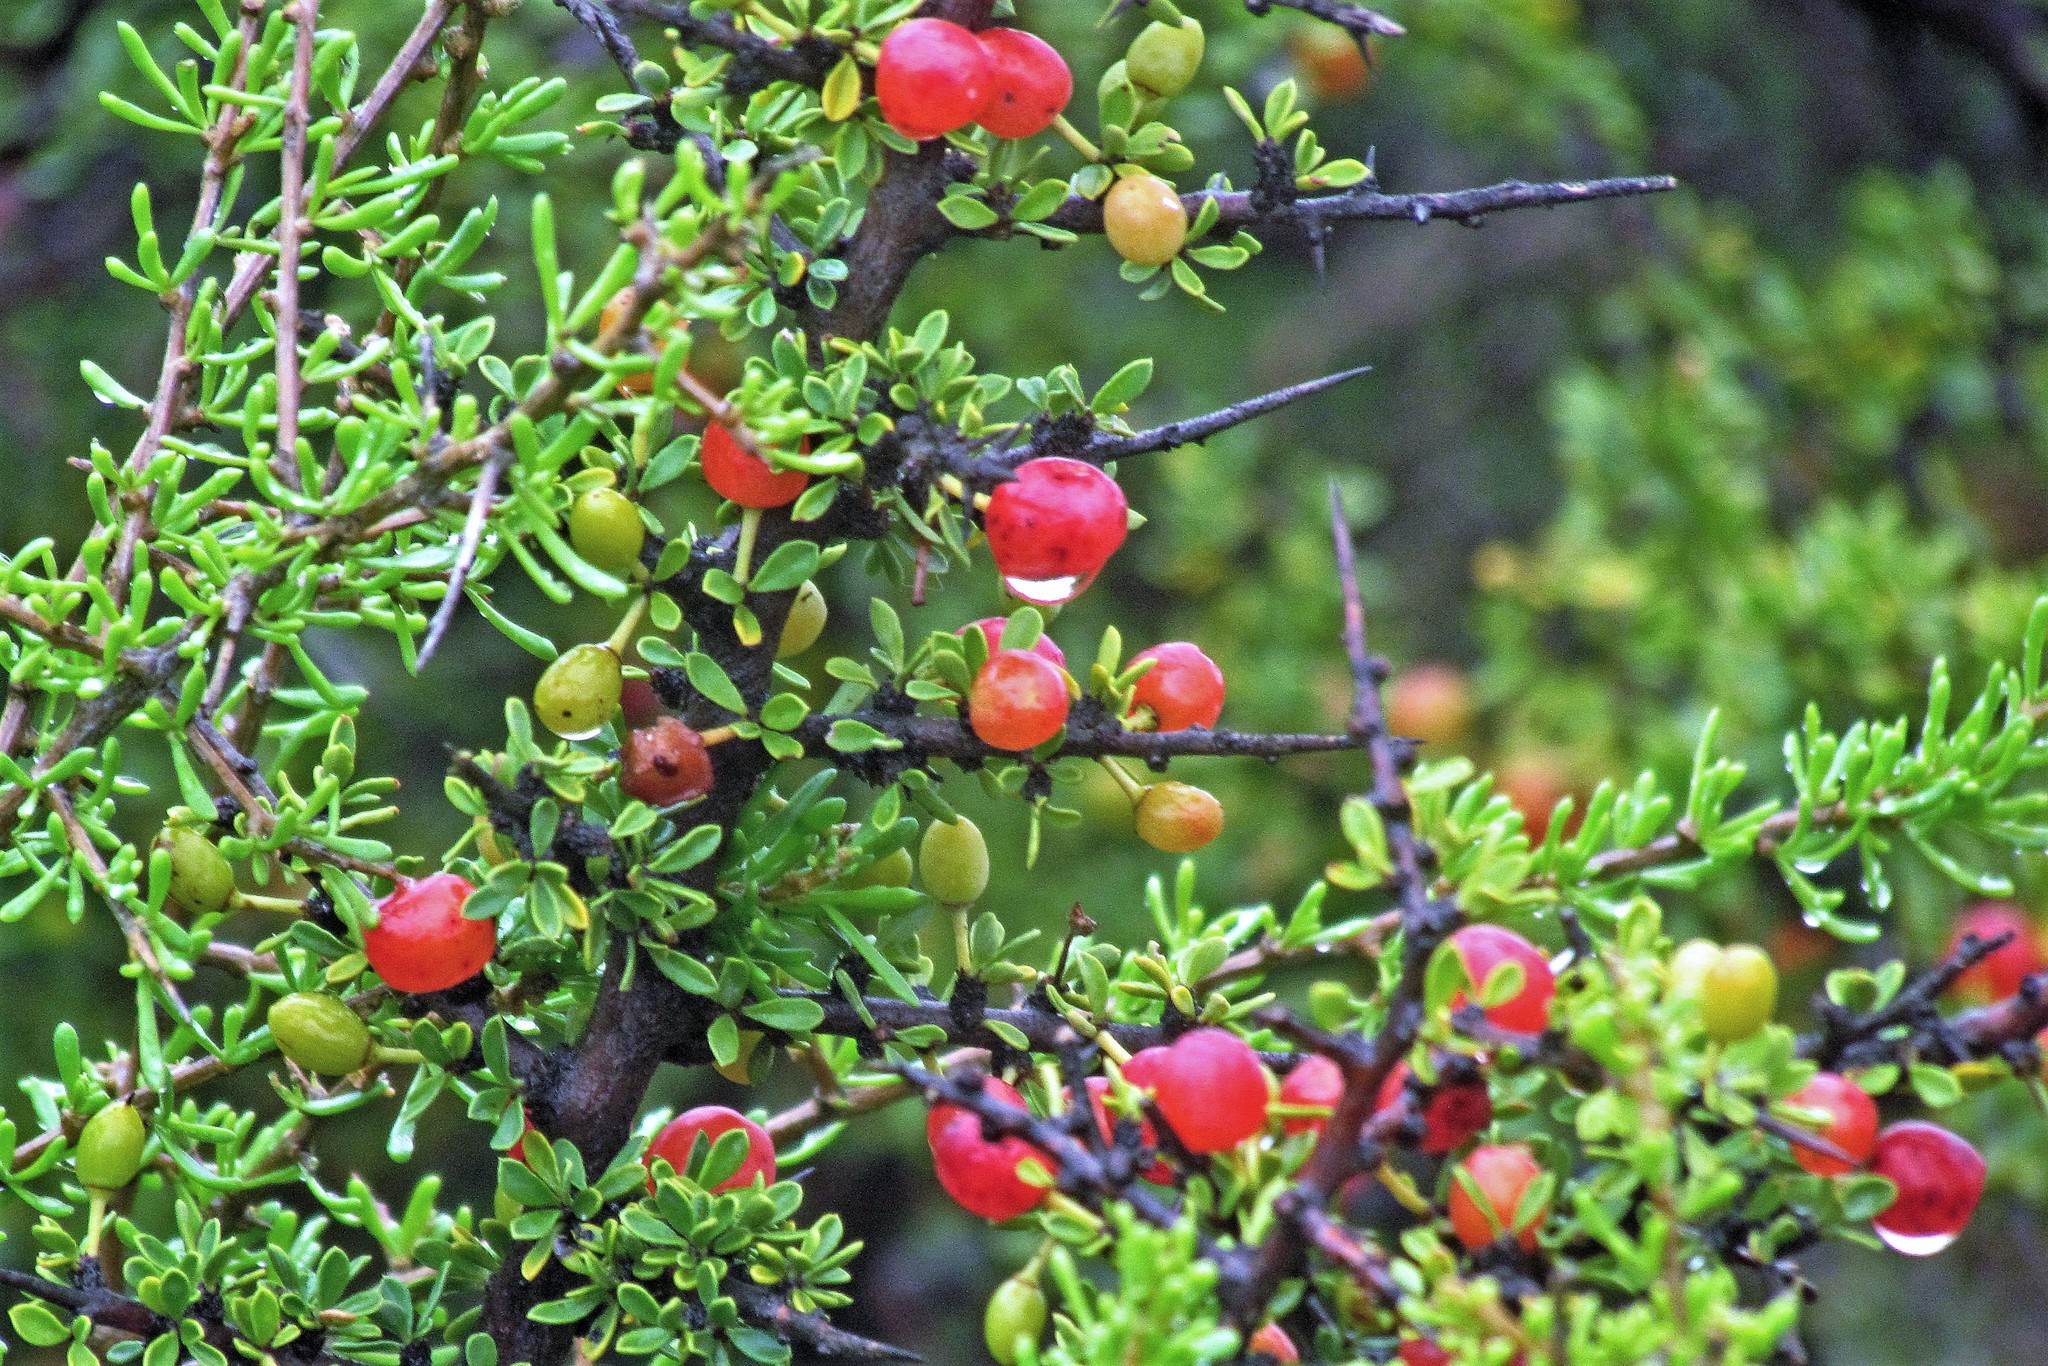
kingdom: Plantae
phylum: Tracheophyta
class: Magnoliopsida
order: Rosales
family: Rhamnaceae
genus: Condalia
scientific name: Condalia microphylla
